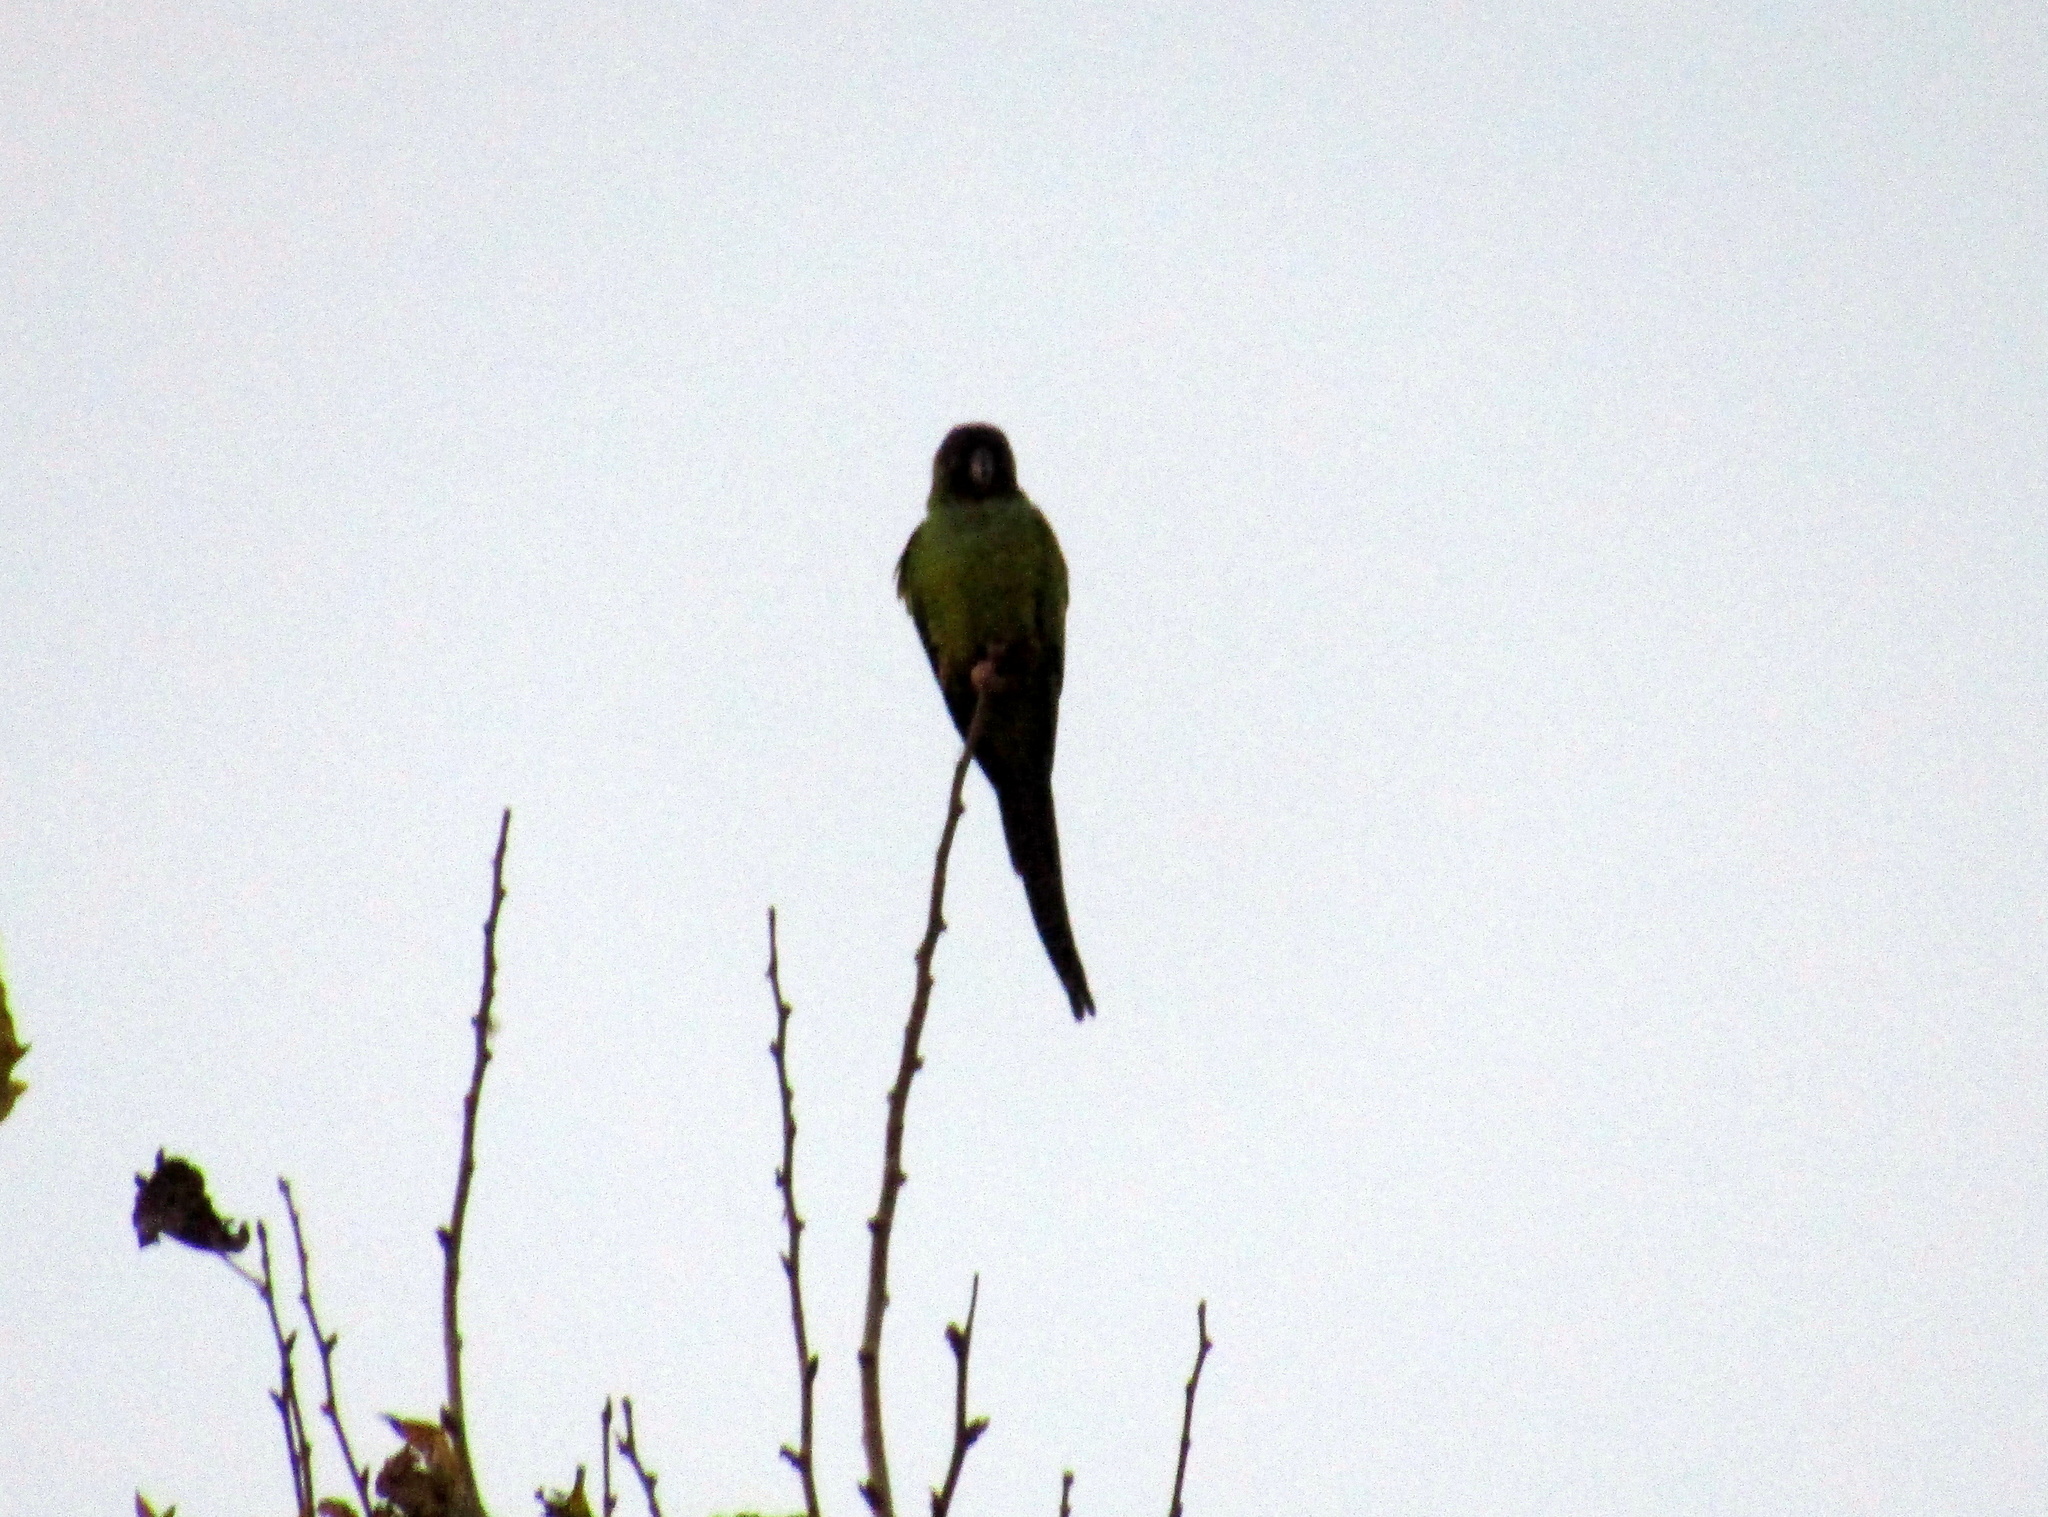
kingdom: Animalia
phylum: Chordata
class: Aves
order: Psittaciformes
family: Psittacidae
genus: Nandayus
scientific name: Nandayus nenday
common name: Nanday parakeet
